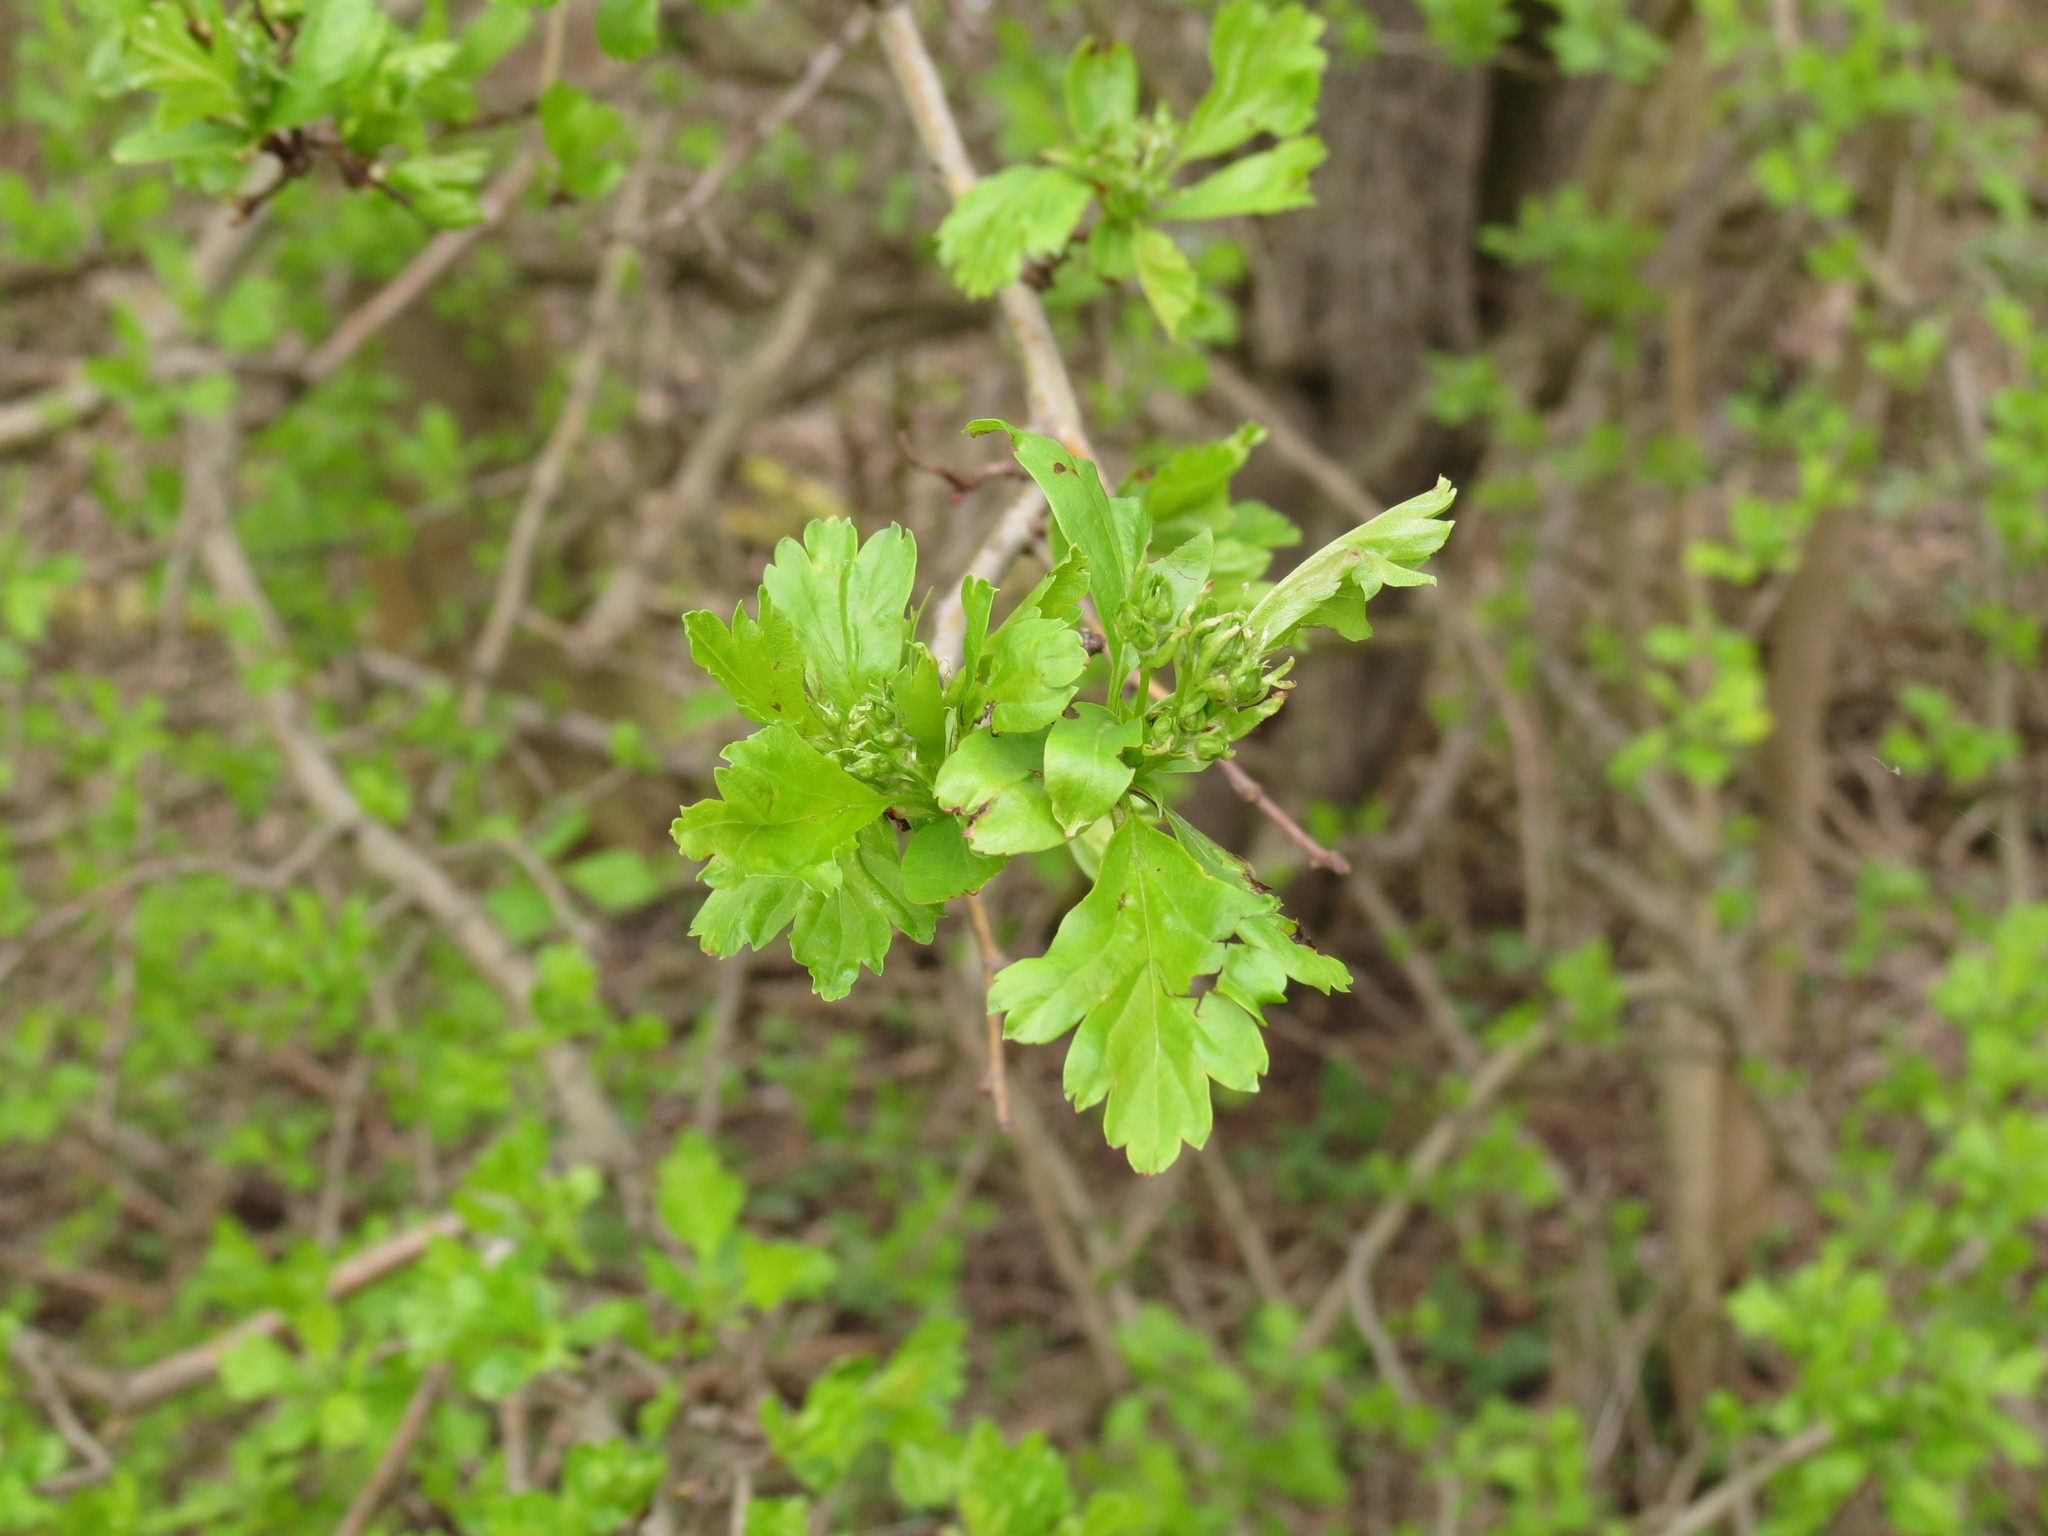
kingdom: Plantae
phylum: Tracheophyta
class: Magnoliopsida
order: Rosales
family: Rosaceae
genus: Crataegus
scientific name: Crataegus monogyna
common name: Hawthorn
